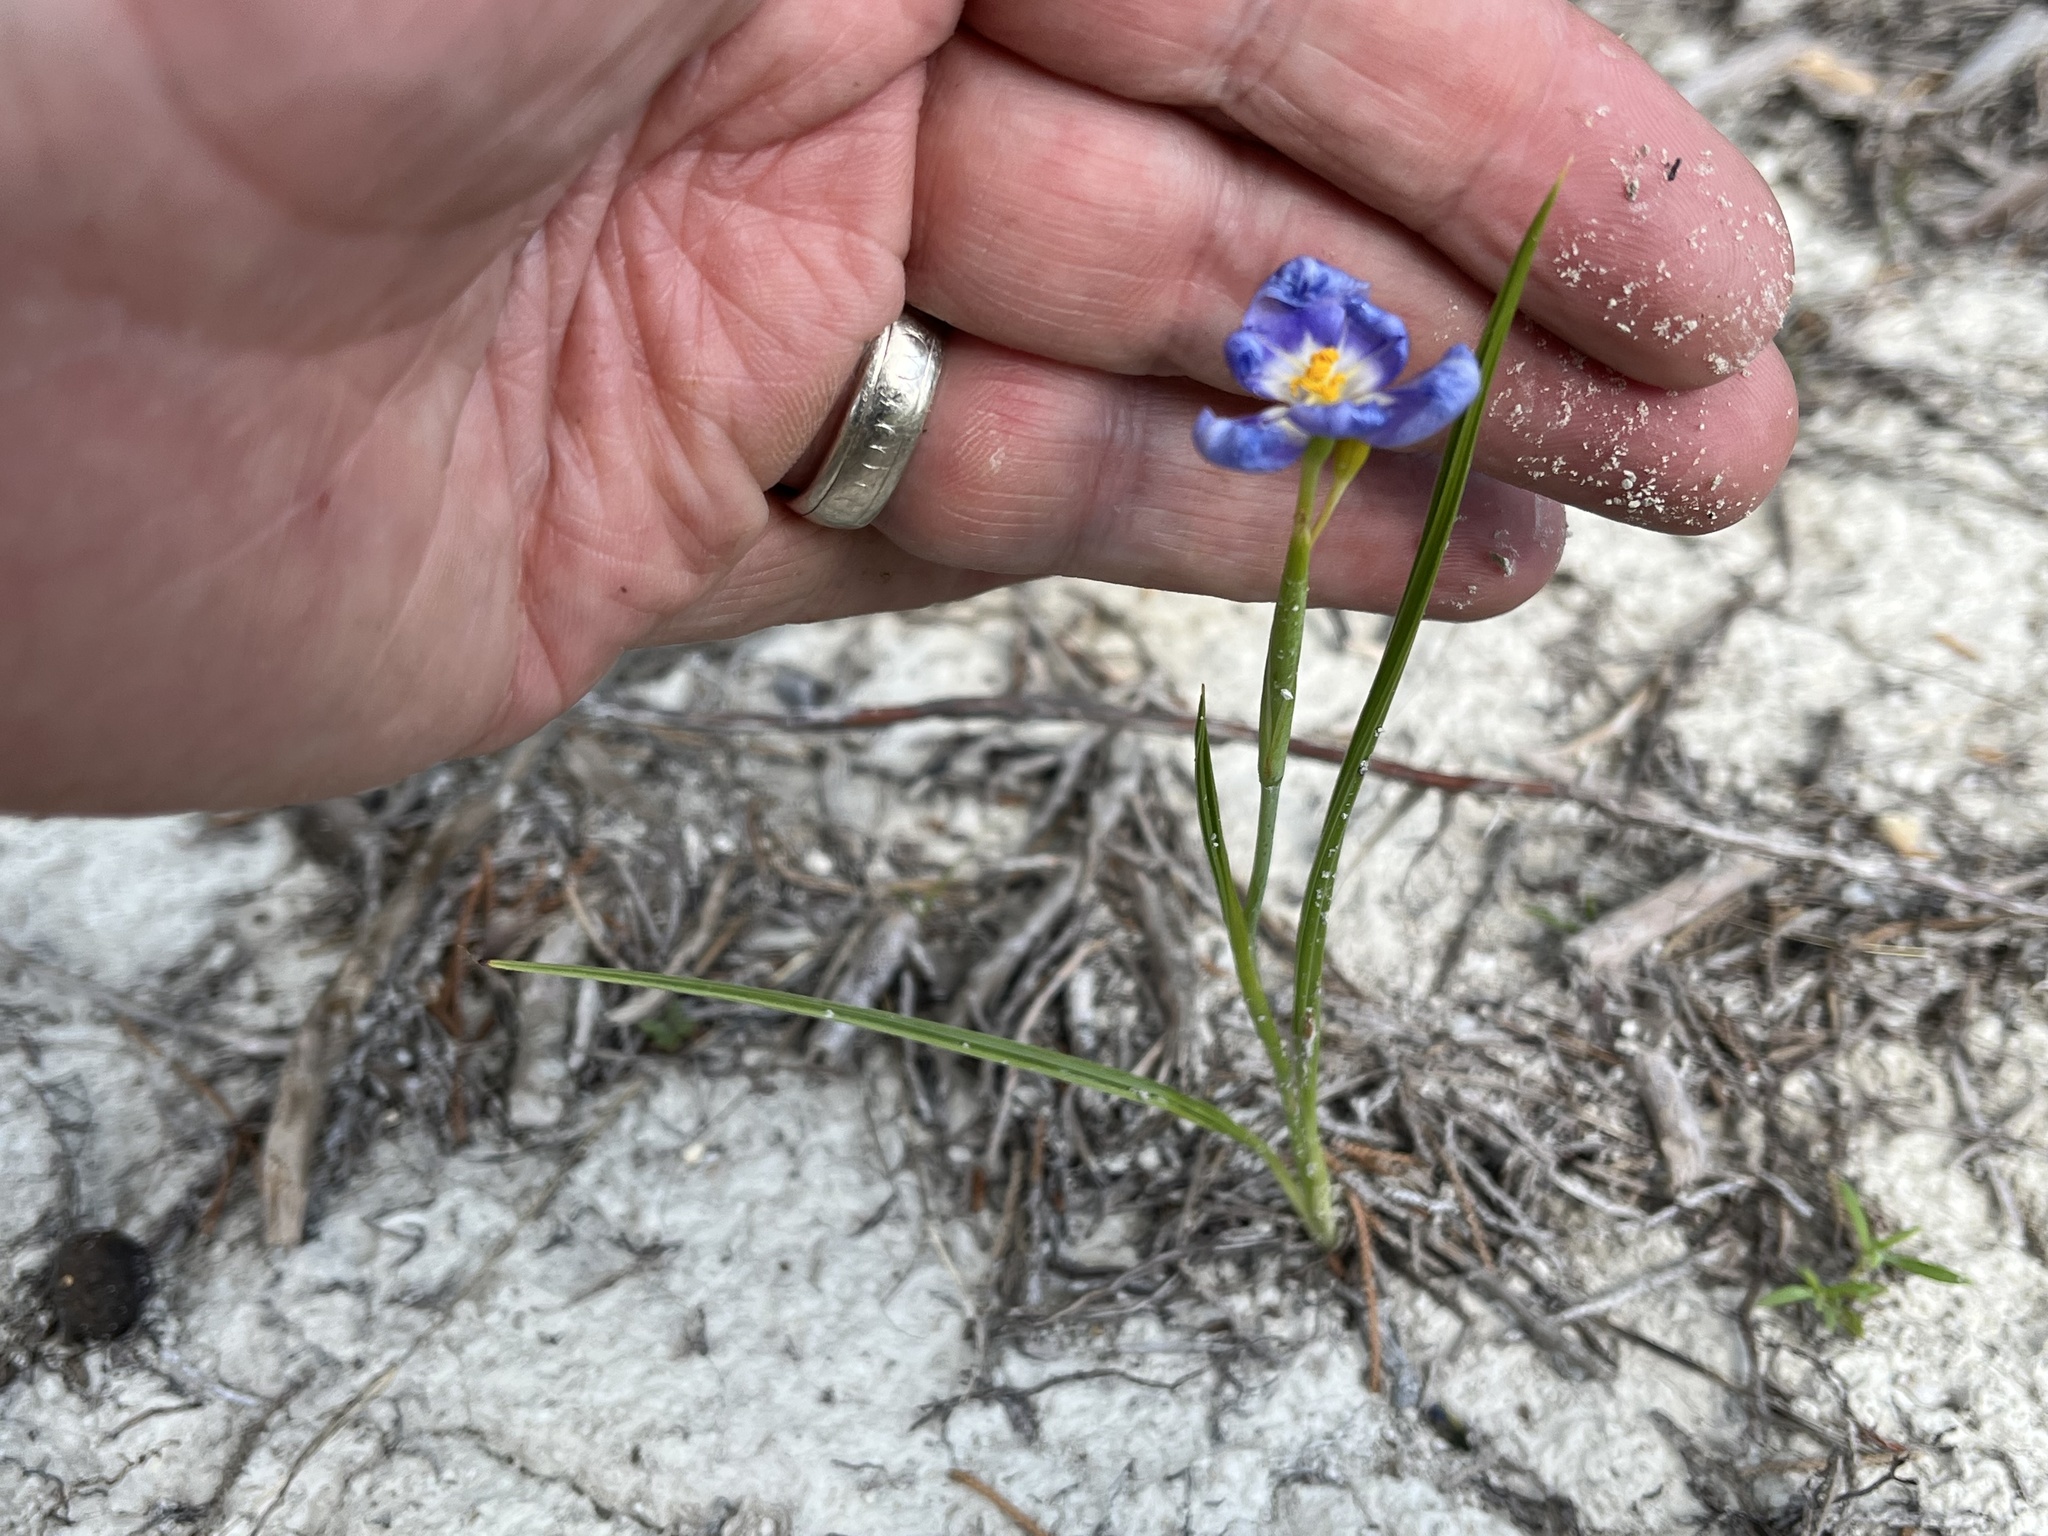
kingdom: Plantae
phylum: Tracheophyta
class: Liliopsida
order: Asparagales
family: Iridaceae
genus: Nemastylis
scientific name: Nemastylis geminiflora
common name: Prairie celestial
